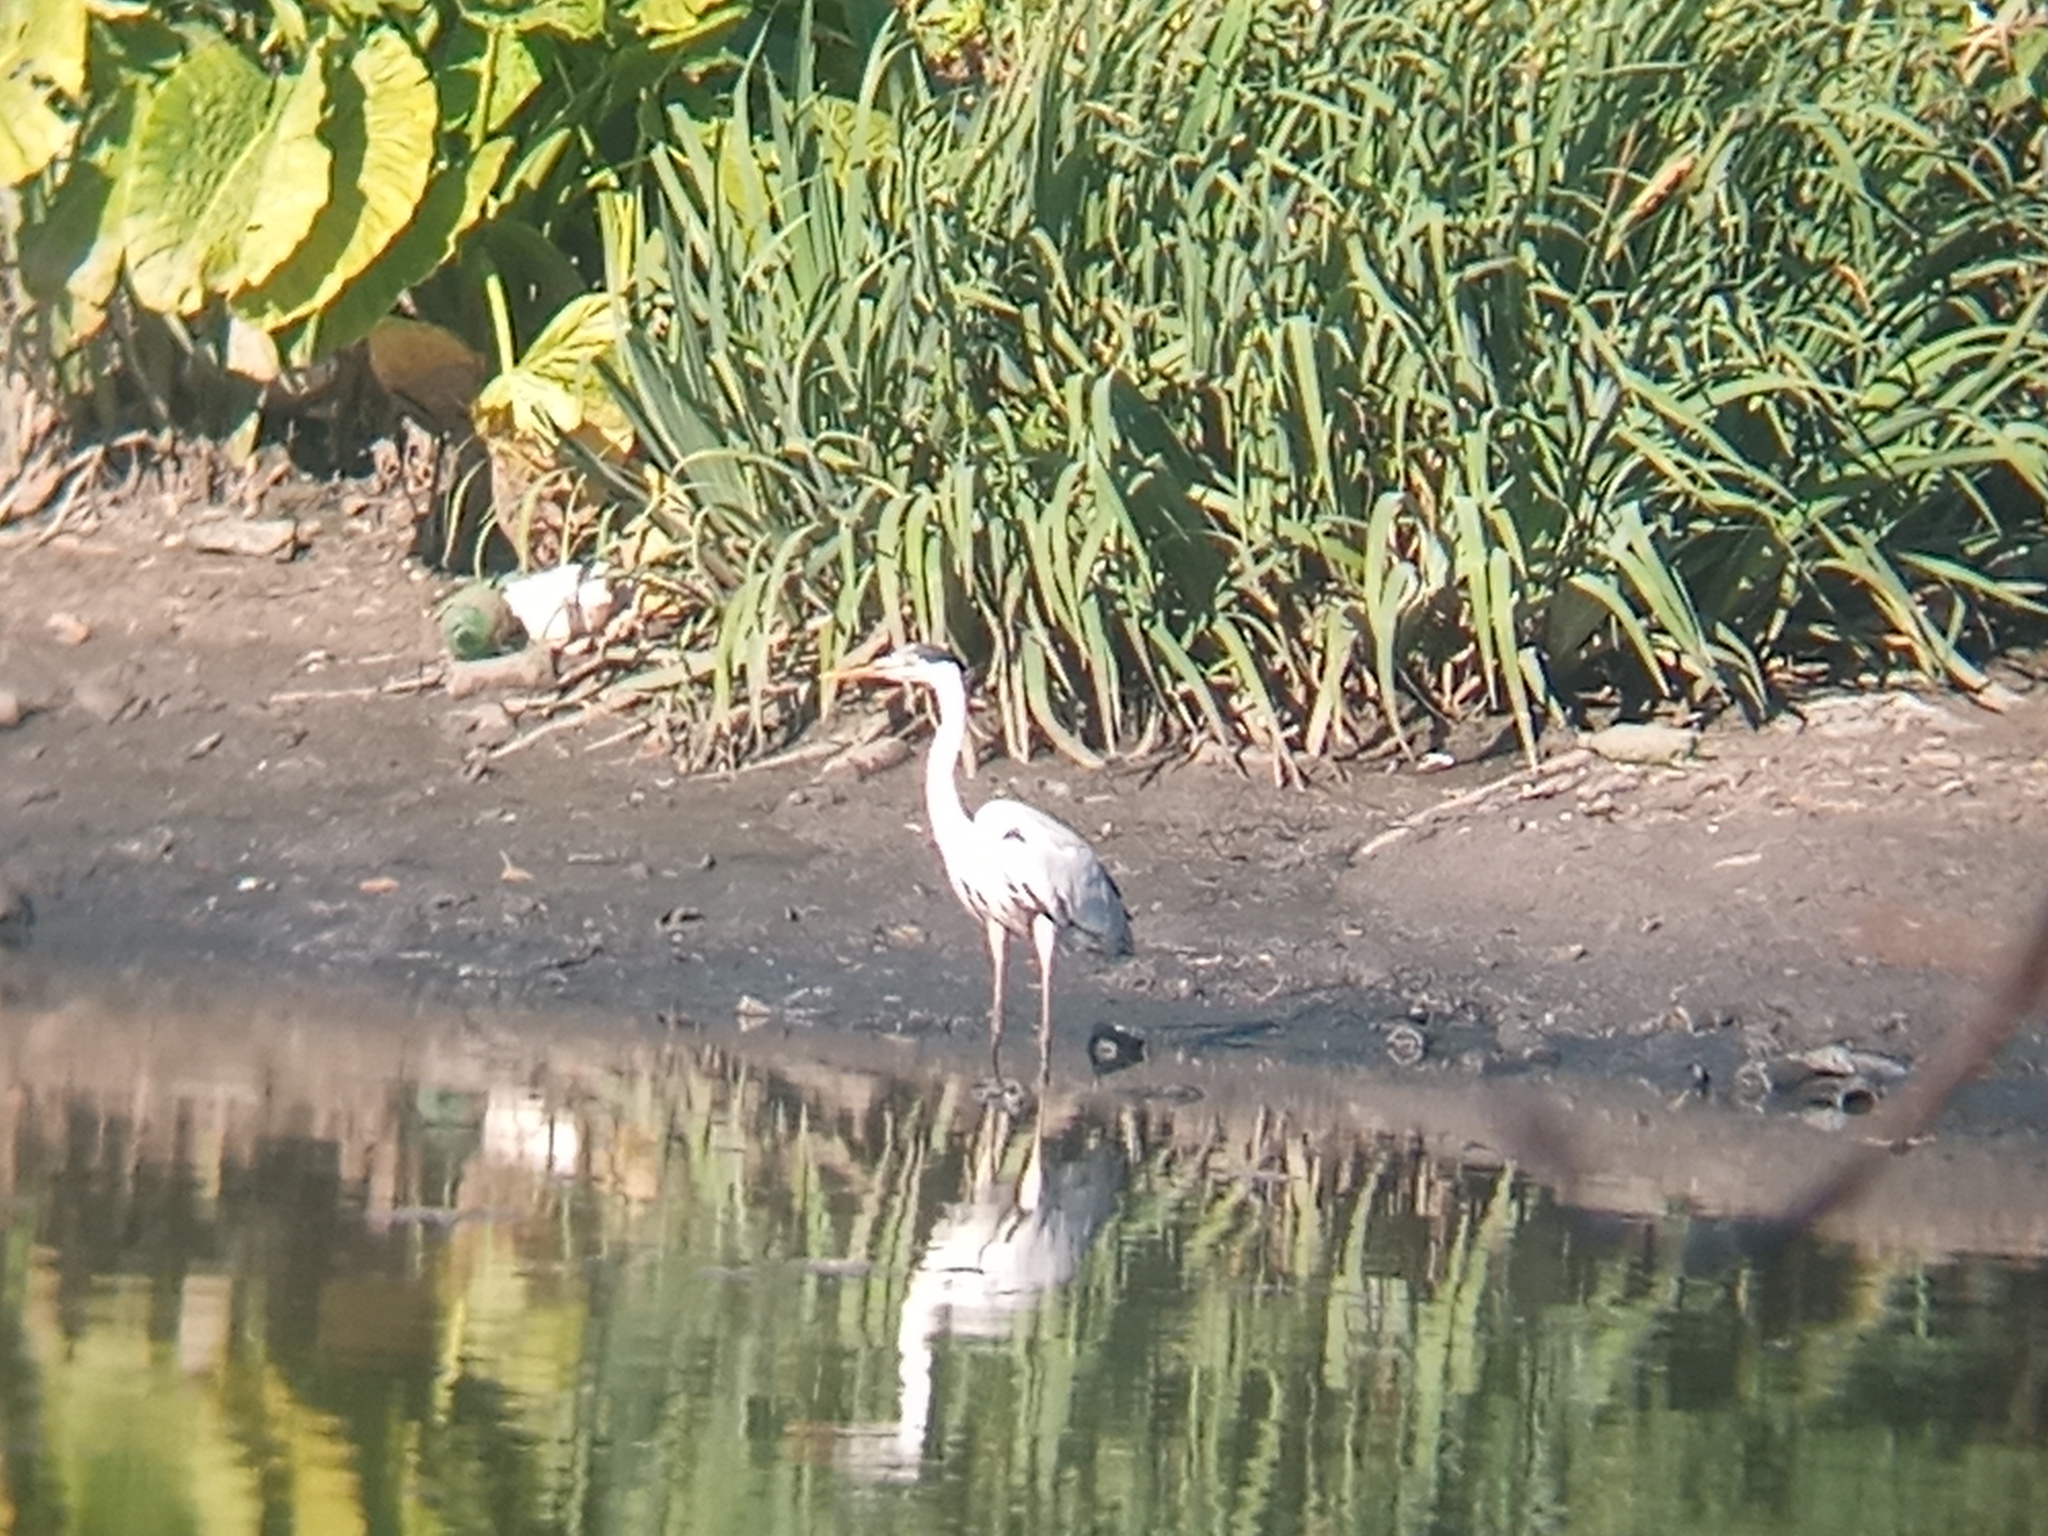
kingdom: Animalia
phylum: Chordata
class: Aves
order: Pelecaniformes
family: Ardeidae
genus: Ardea
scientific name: Ardea cocoi
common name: Cocoi heron
